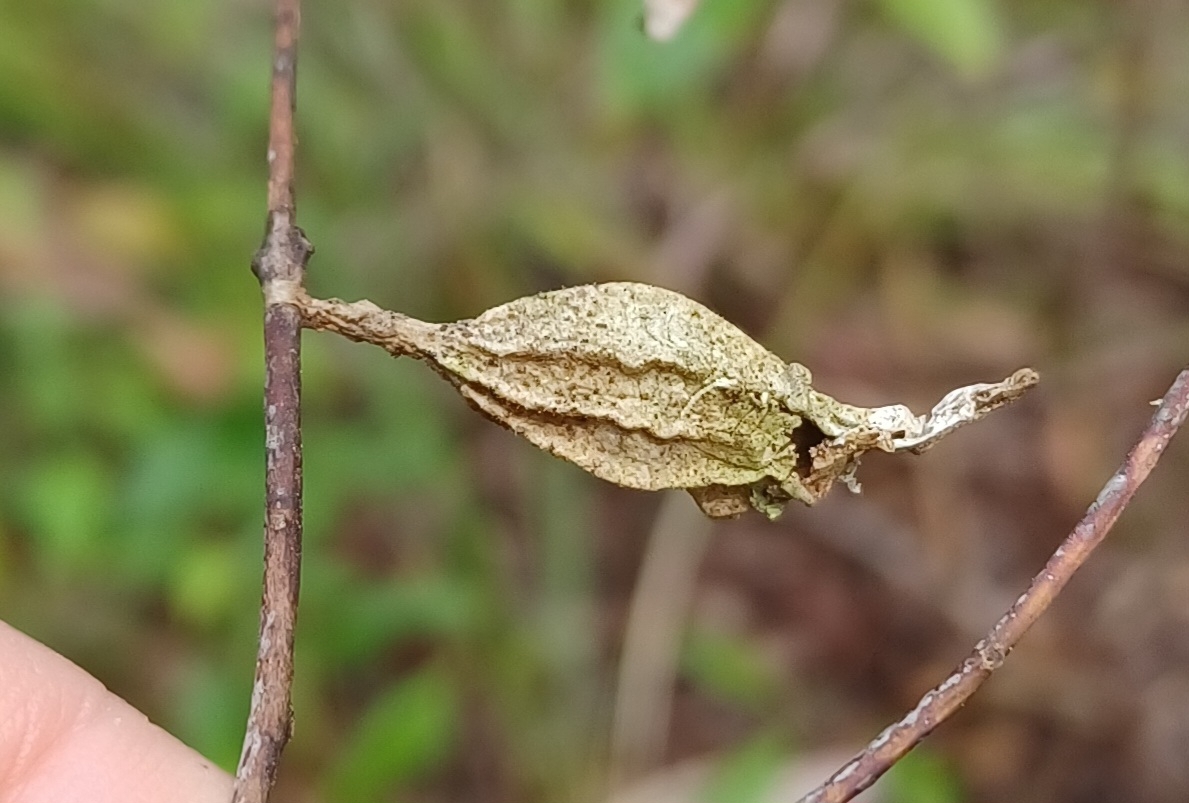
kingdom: Animalia
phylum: Arthropoda
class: Insecta
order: Lepidoptera
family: Psychidae
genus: Hyalarcta
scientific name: Hyalarcta nigrescens
